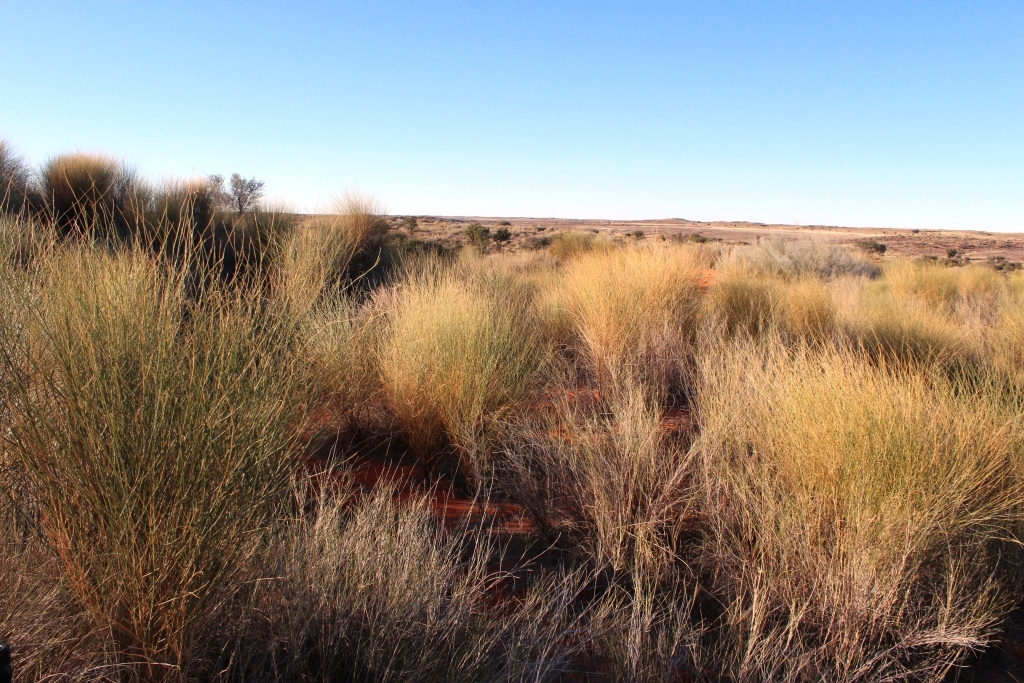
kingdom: Plantae
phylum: Tracheophyta
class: Magnoliopsida
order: Fabales
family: Fabaceae
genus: Crotalaria
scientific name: Crotalaria spartioides
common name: Dunebush
